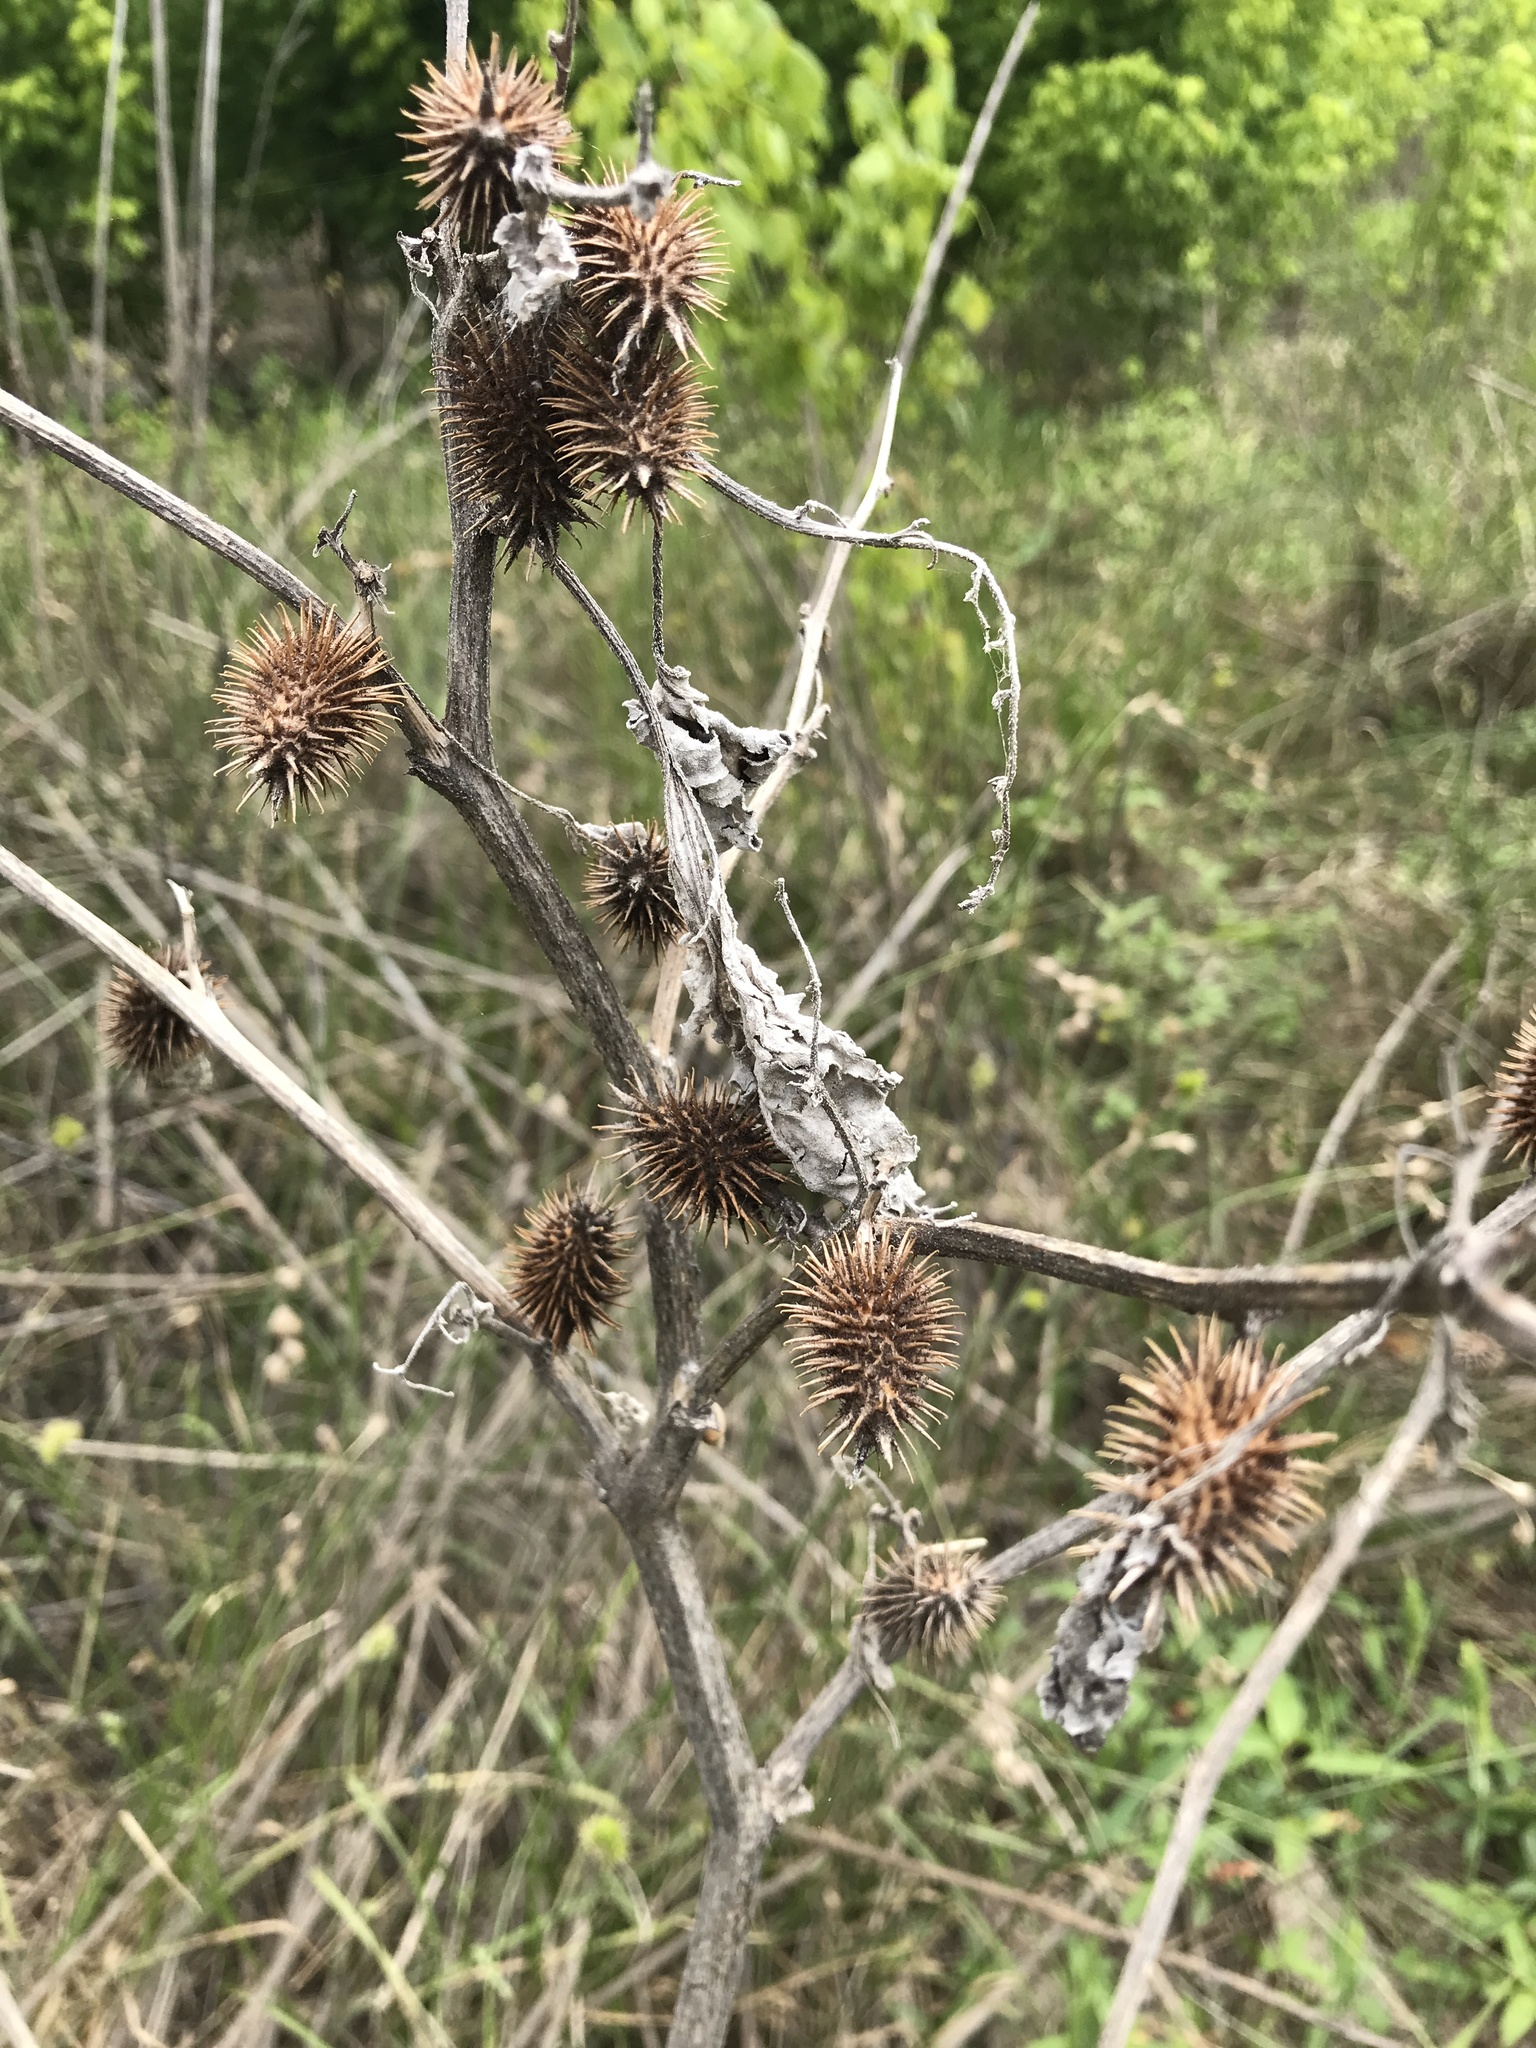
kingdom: Plantae
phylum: Tracheophyta
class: Magnoliopsida
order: Asterales
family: Asteraceae
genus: Xanthium
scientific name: Xanthium strumarium
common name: Rough cocklebur
